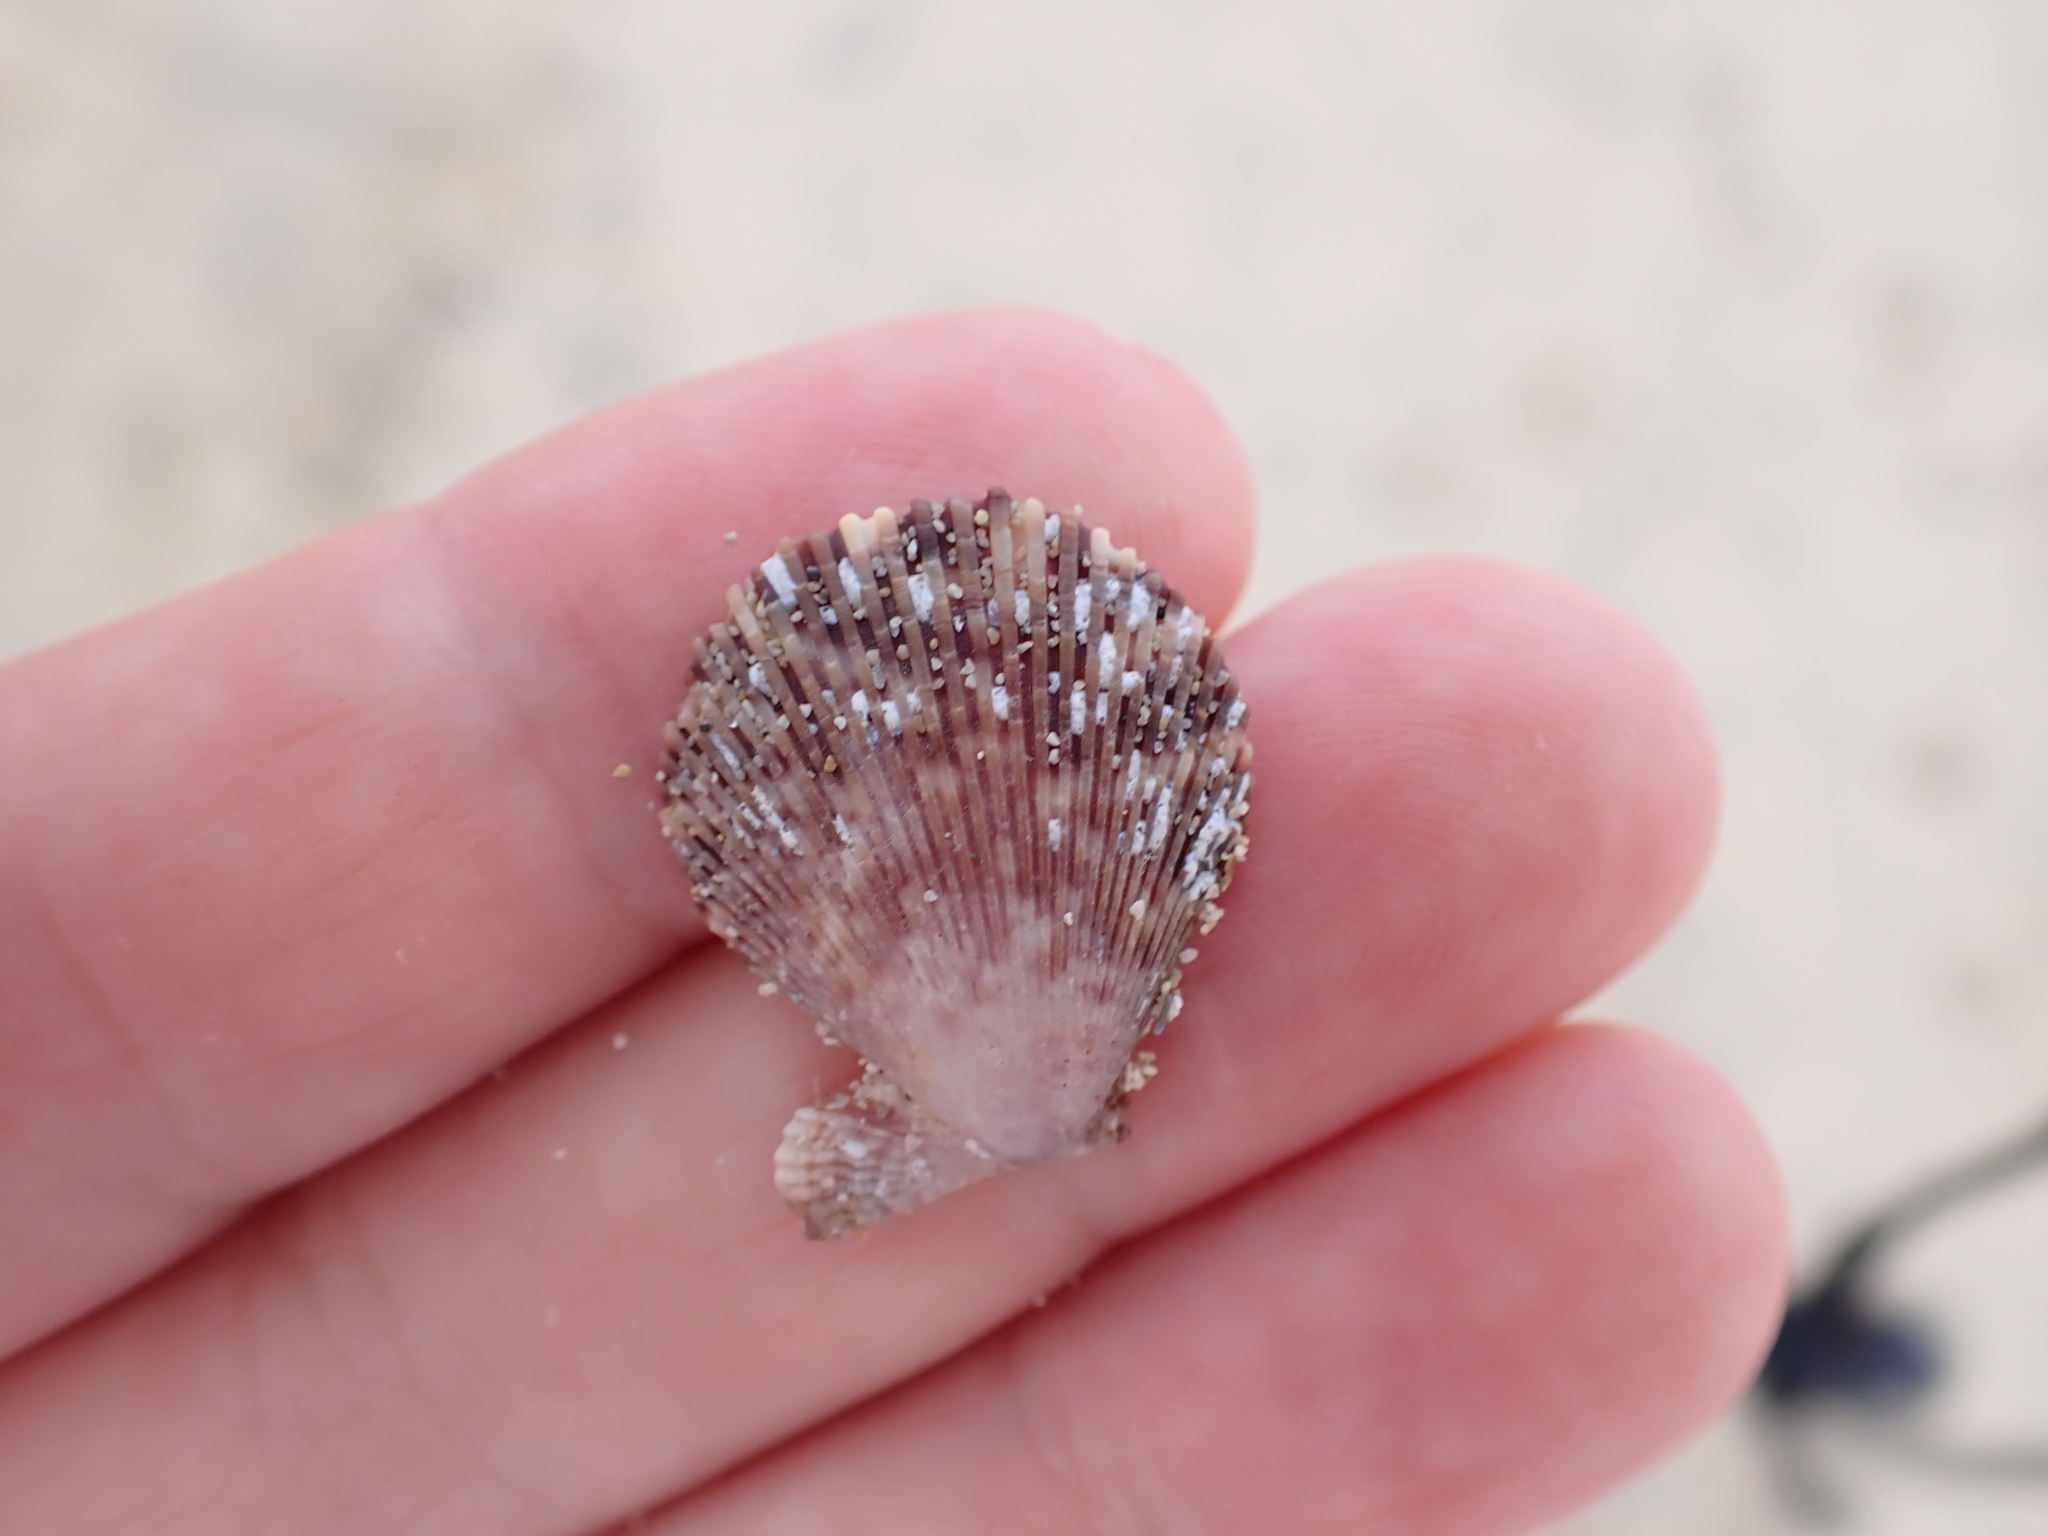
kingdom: Animalia
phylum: Mollusca
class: Bivalvia
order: Pectinida
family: Pectinidae
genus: Mimachlamys
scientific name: Mimachlamys varia
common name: Variegated scallop
